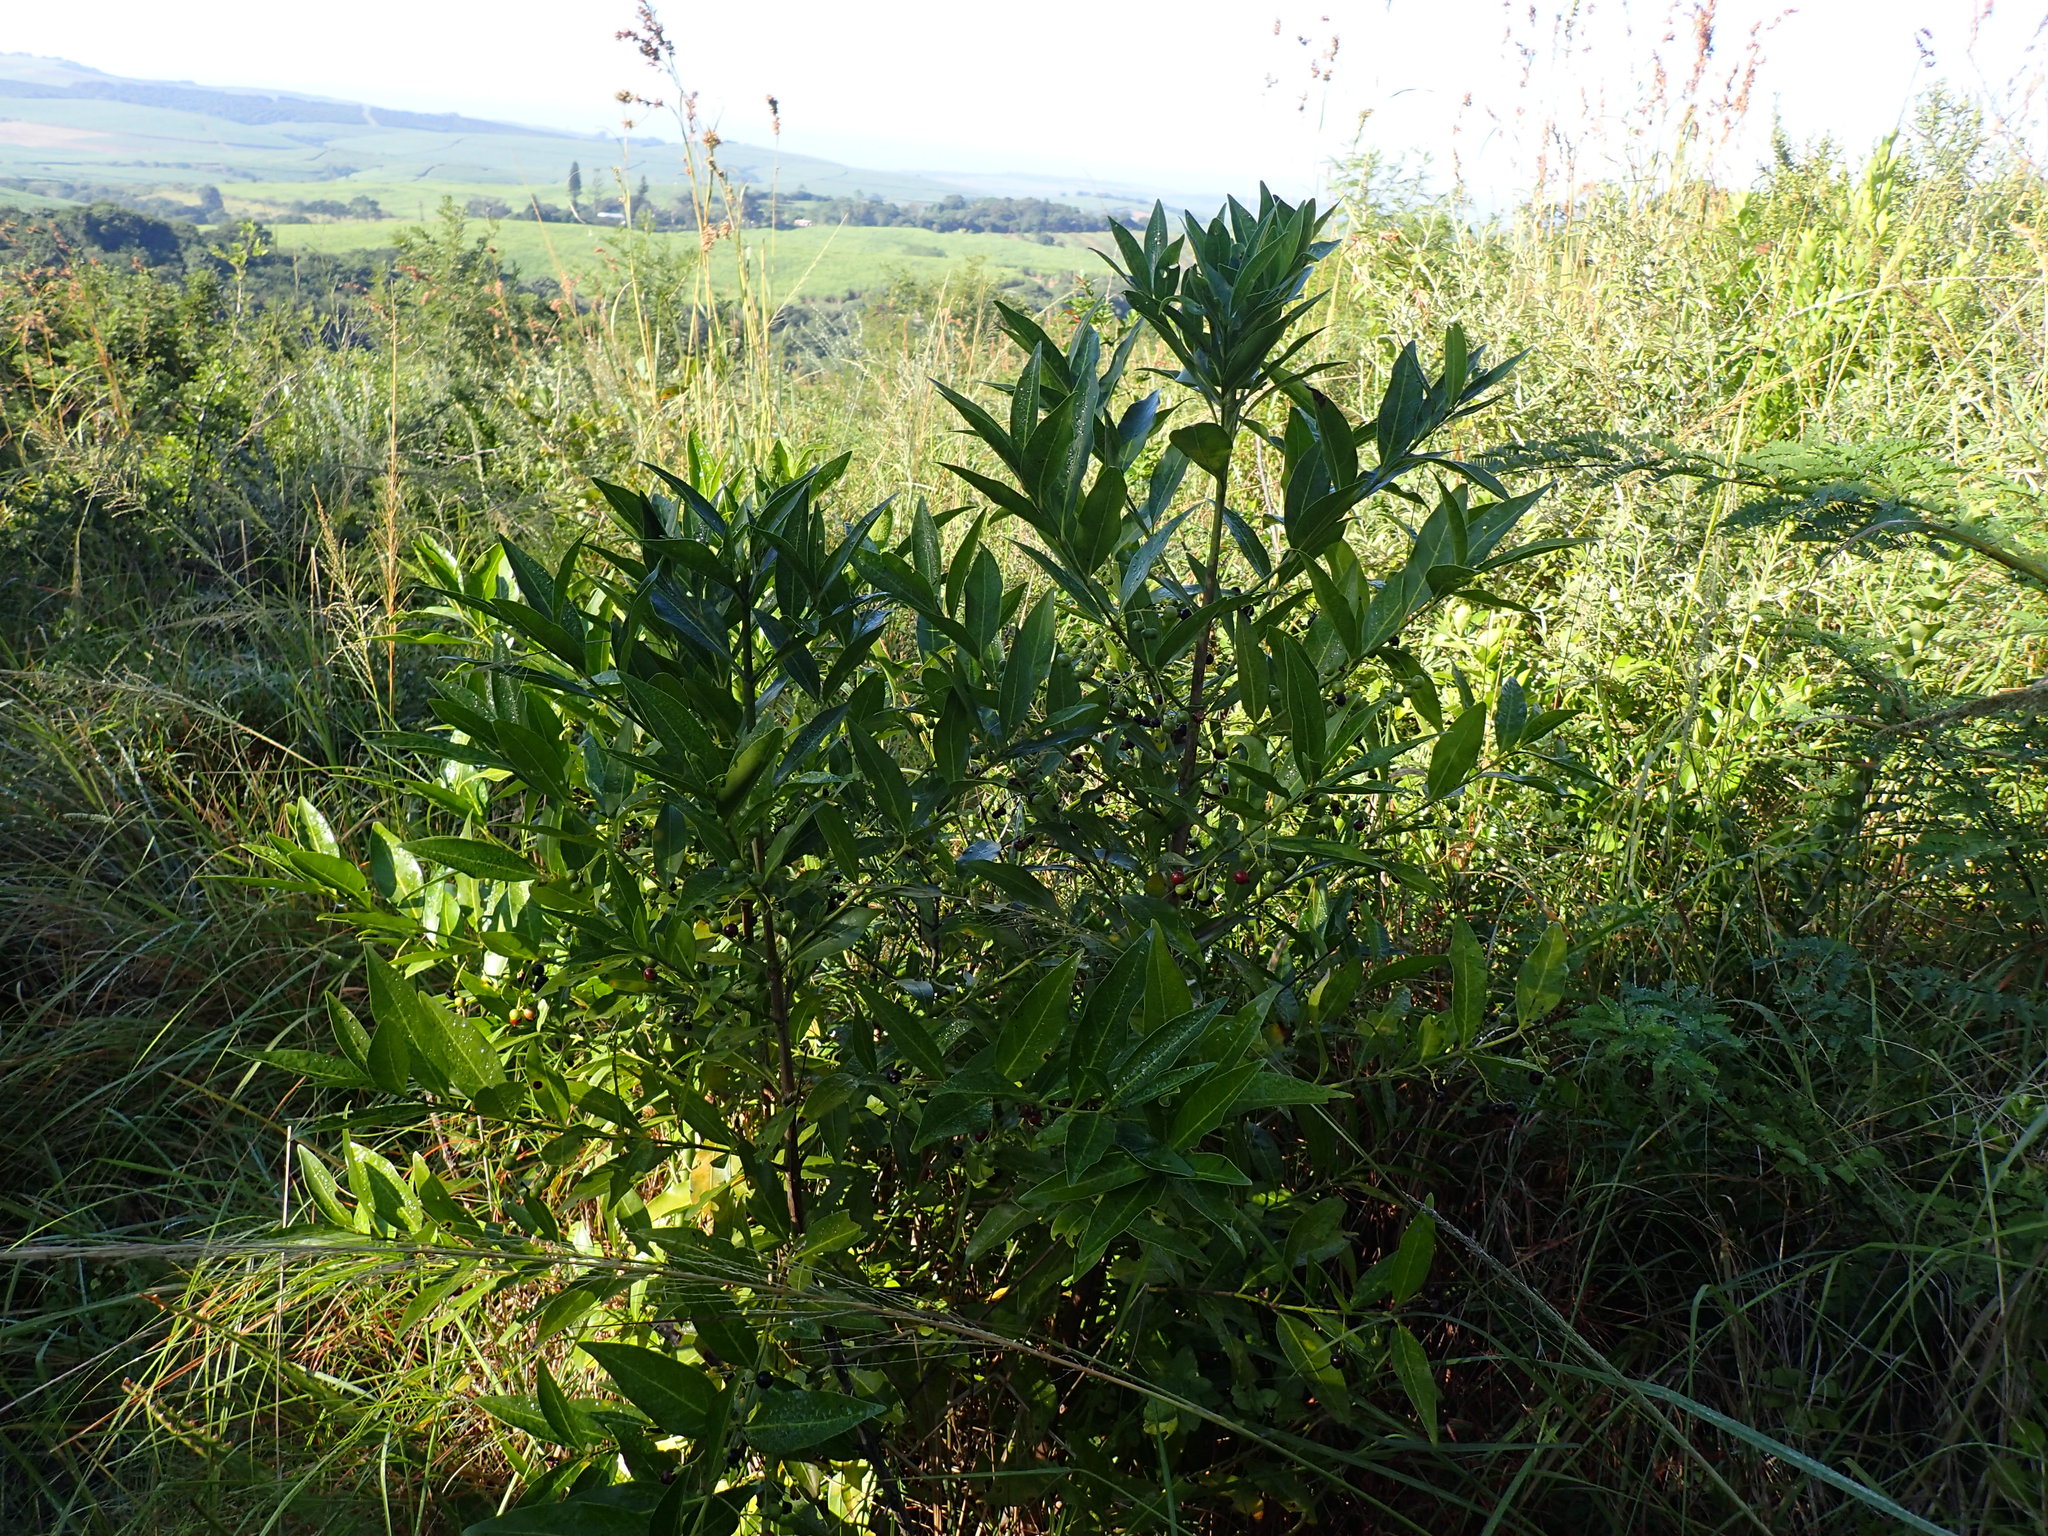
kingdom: Plantae
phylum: Tracheophyta
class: Magnoliopsida
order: Gentianales
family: Rubiaceae
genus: Kraussia
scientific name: Kraussia floribunda
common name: Rhino-coffee
